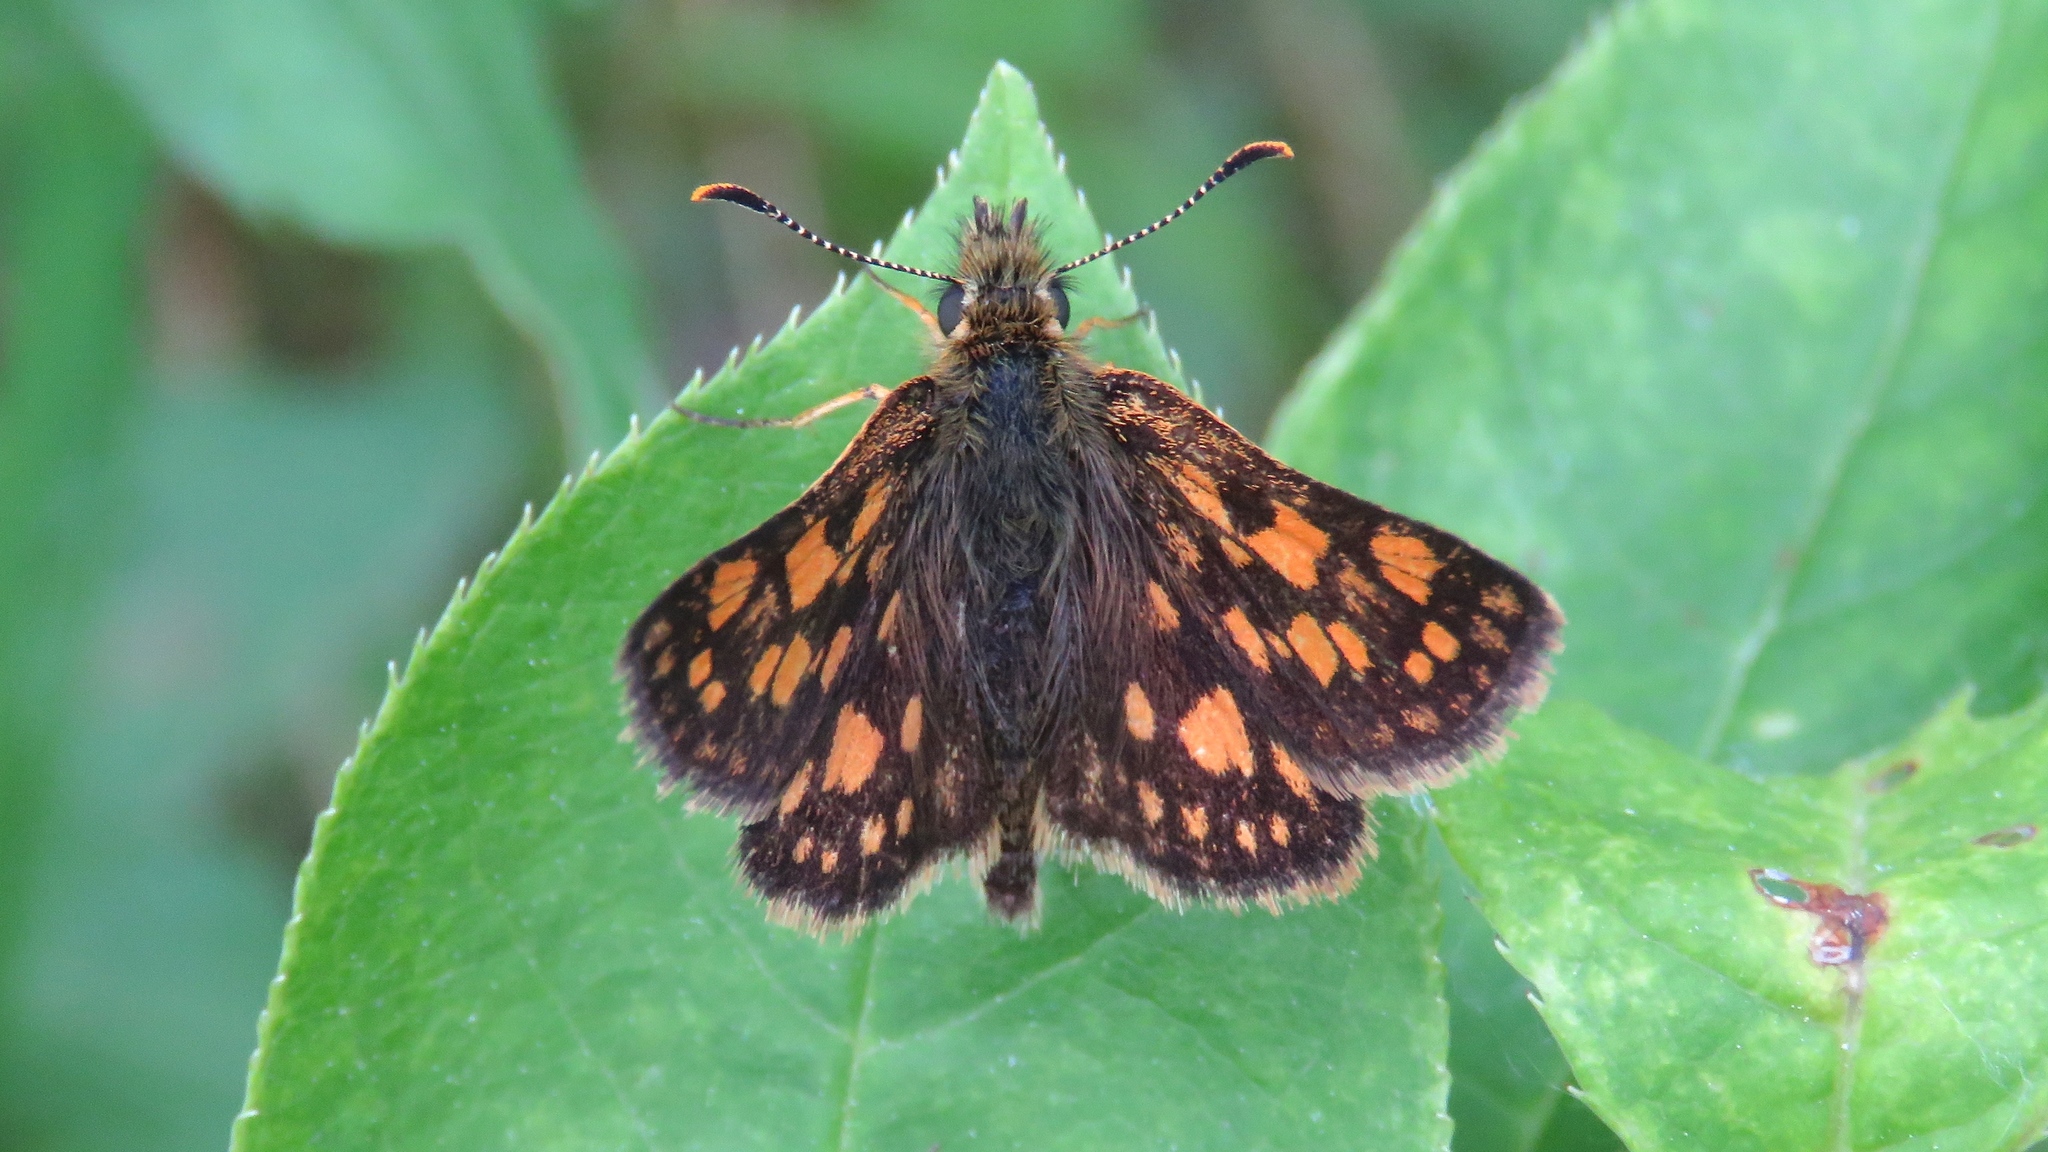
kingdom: Animalia
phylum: Arthropoda
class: Insecta
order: Lepidoptera
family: Hesperiidae
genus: Carterocephalus
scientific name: Carterocephalus mandan
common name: Arctic skipperling
